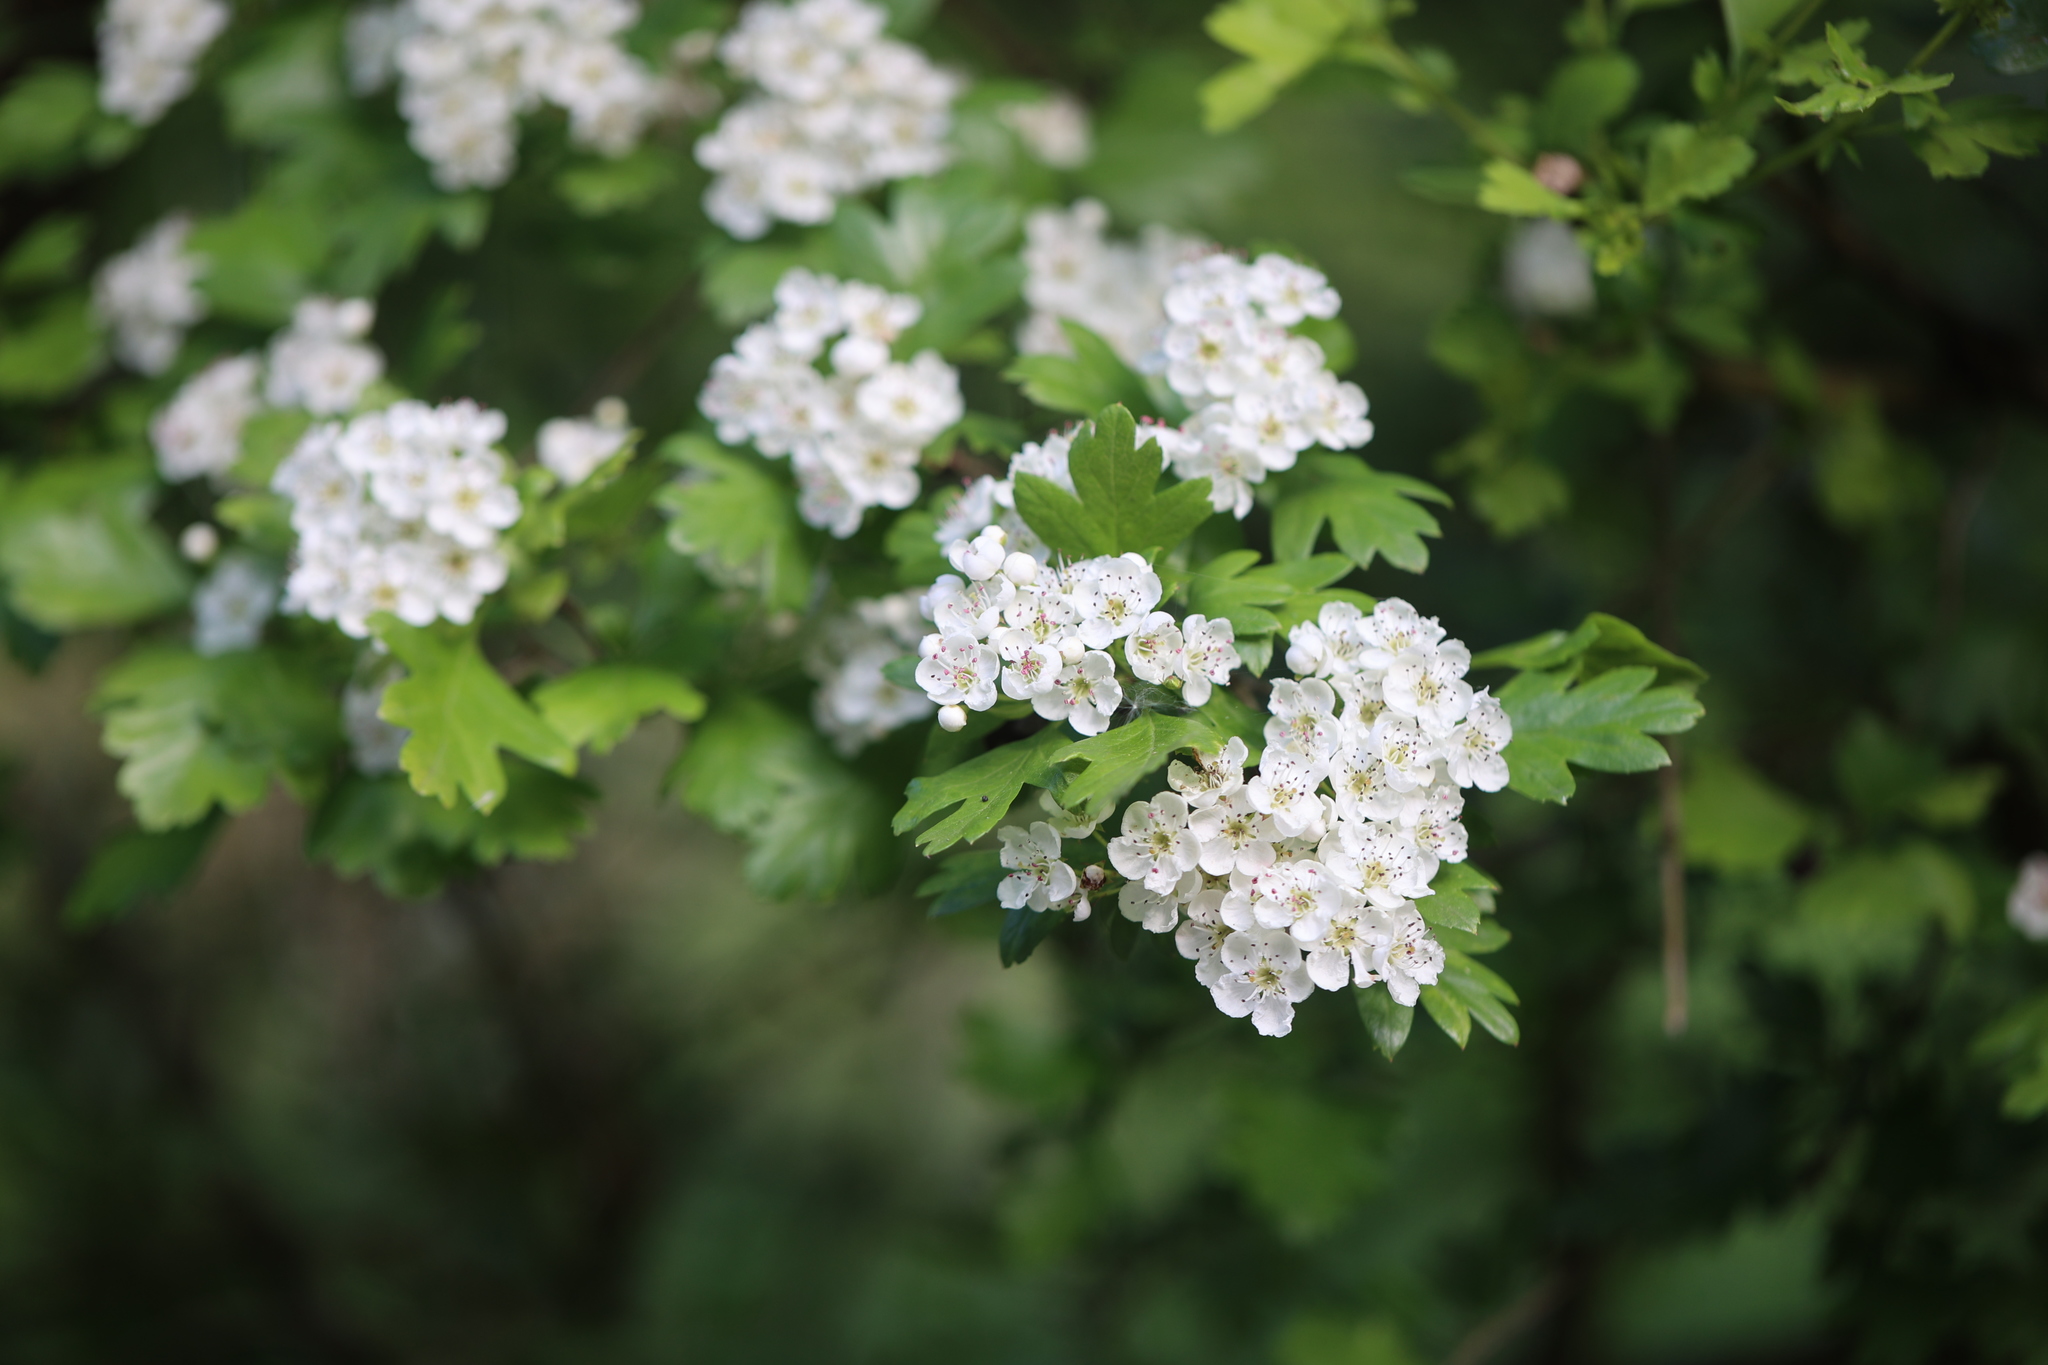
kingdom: Plantae
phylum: Tracheophyta
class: Magnoliopsida
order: Rosales
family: Rosaceae
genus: Crataegus
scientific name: Crataegus monogyna
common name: Hawthorn
